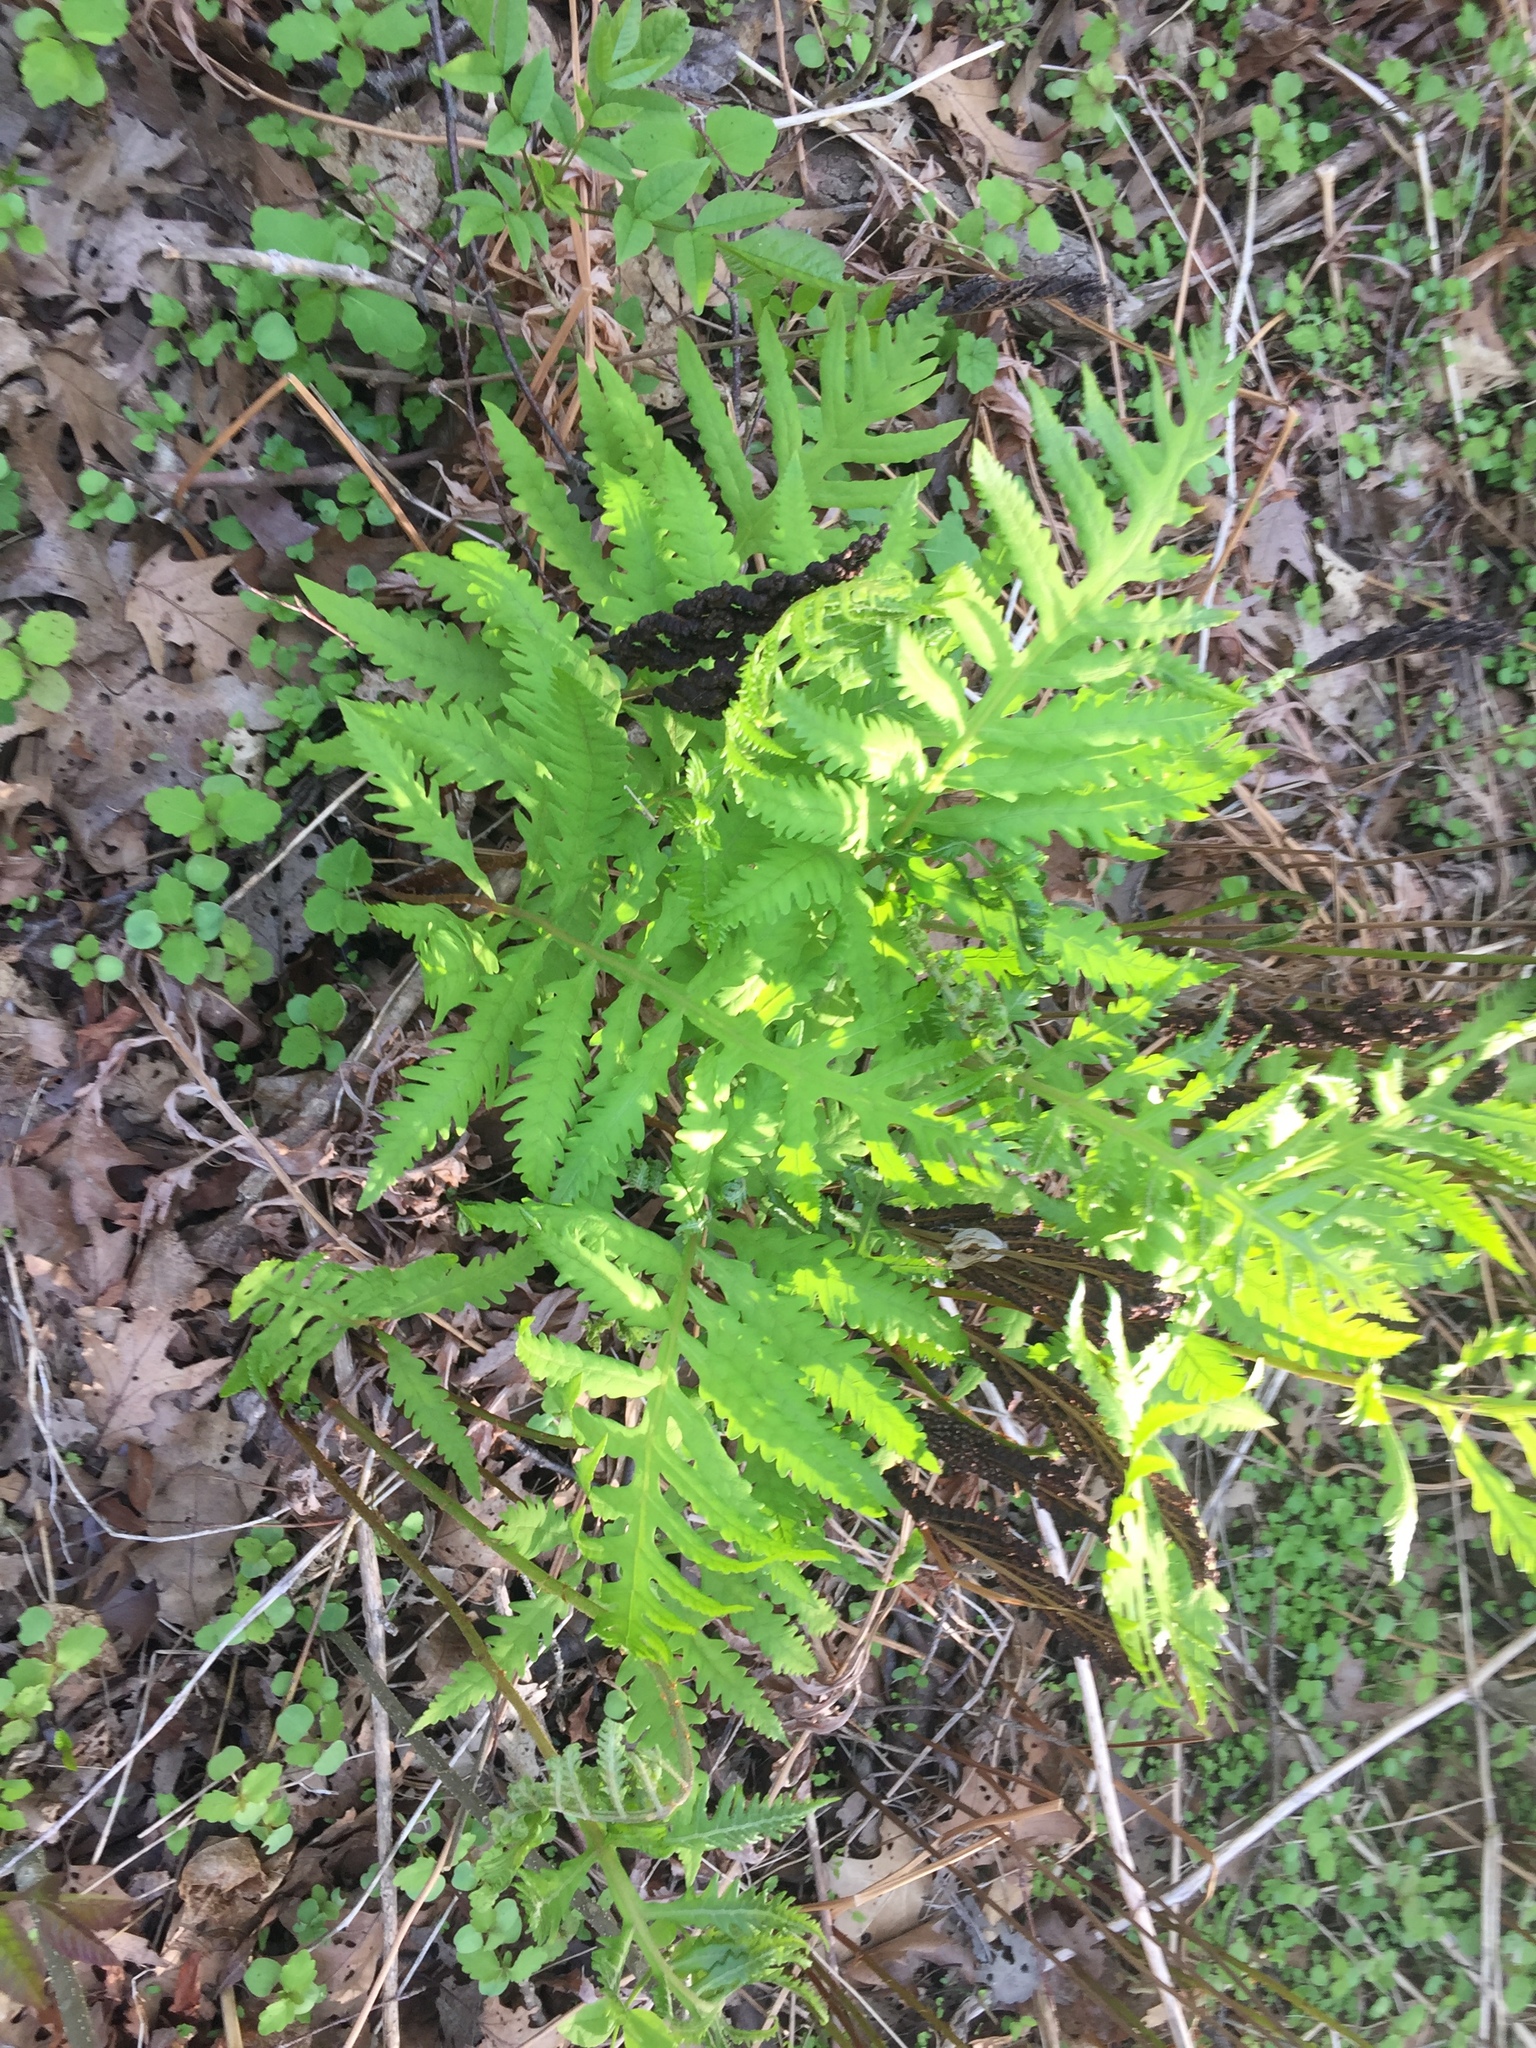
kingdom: Plantae
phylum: Tracheophyta
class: Polypodiopsida
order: Polypodiales
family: Onocleaceae
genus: Onoclea
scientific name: Onoclea sensibilis
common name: Sensitive fern
